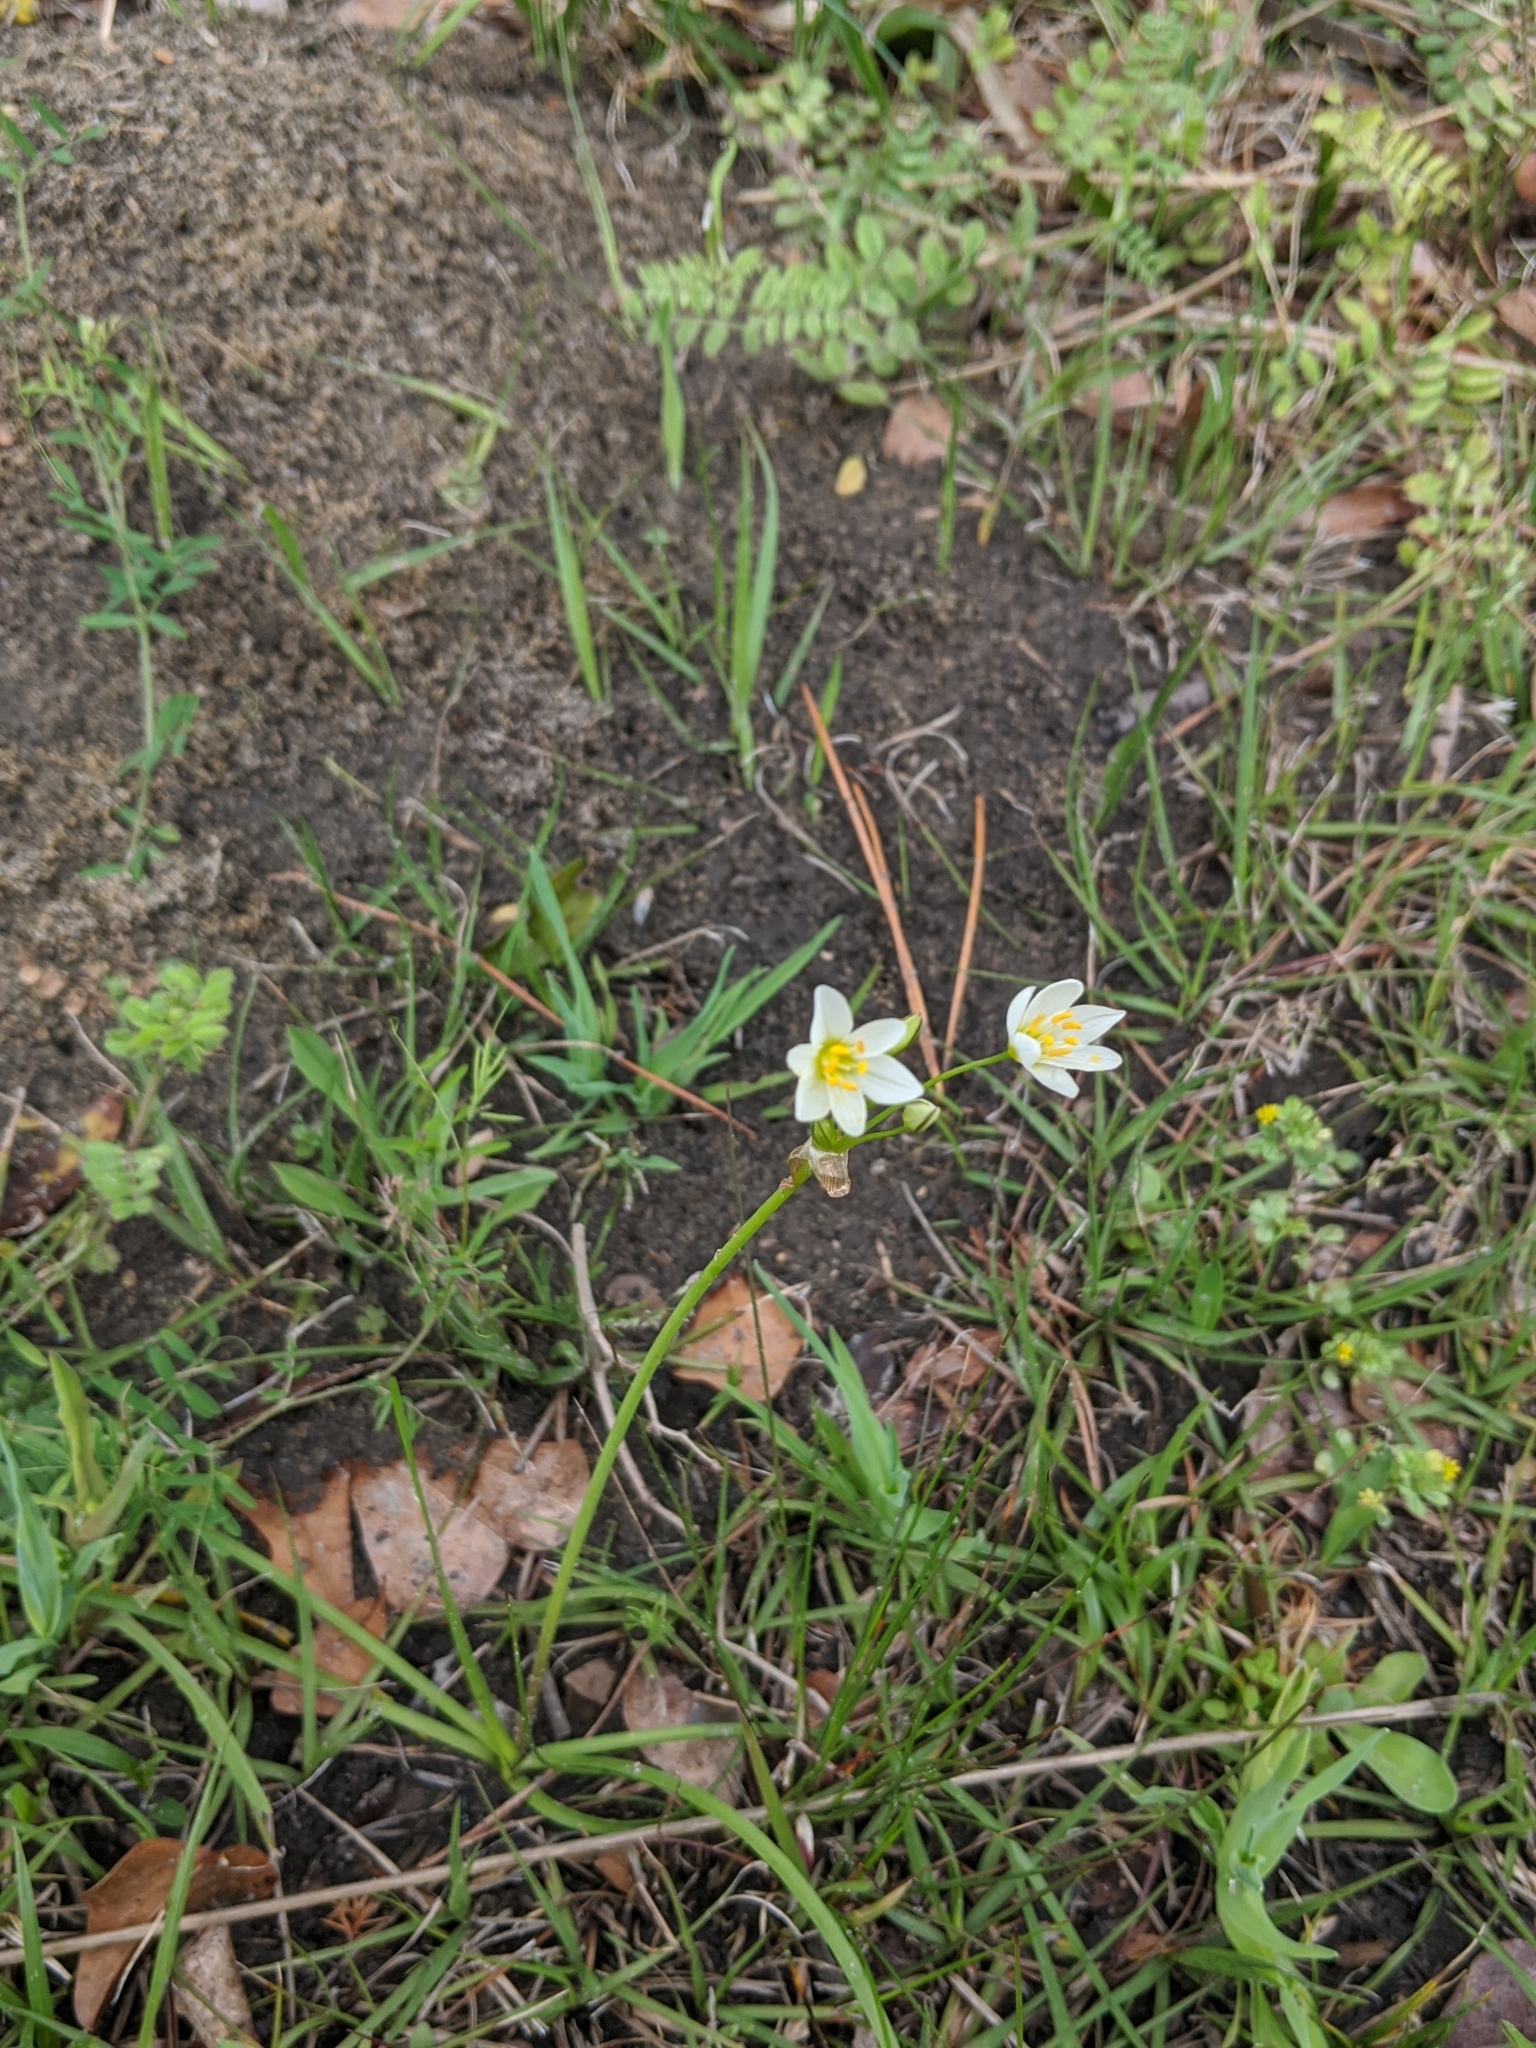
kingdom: Plantae
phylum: Tracheophyta
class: Liliopsida
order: Asparagales
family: Amaryllidaceae
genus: Nothoscordum
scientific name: Nothoscordum bivalve
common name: Crow-poison
